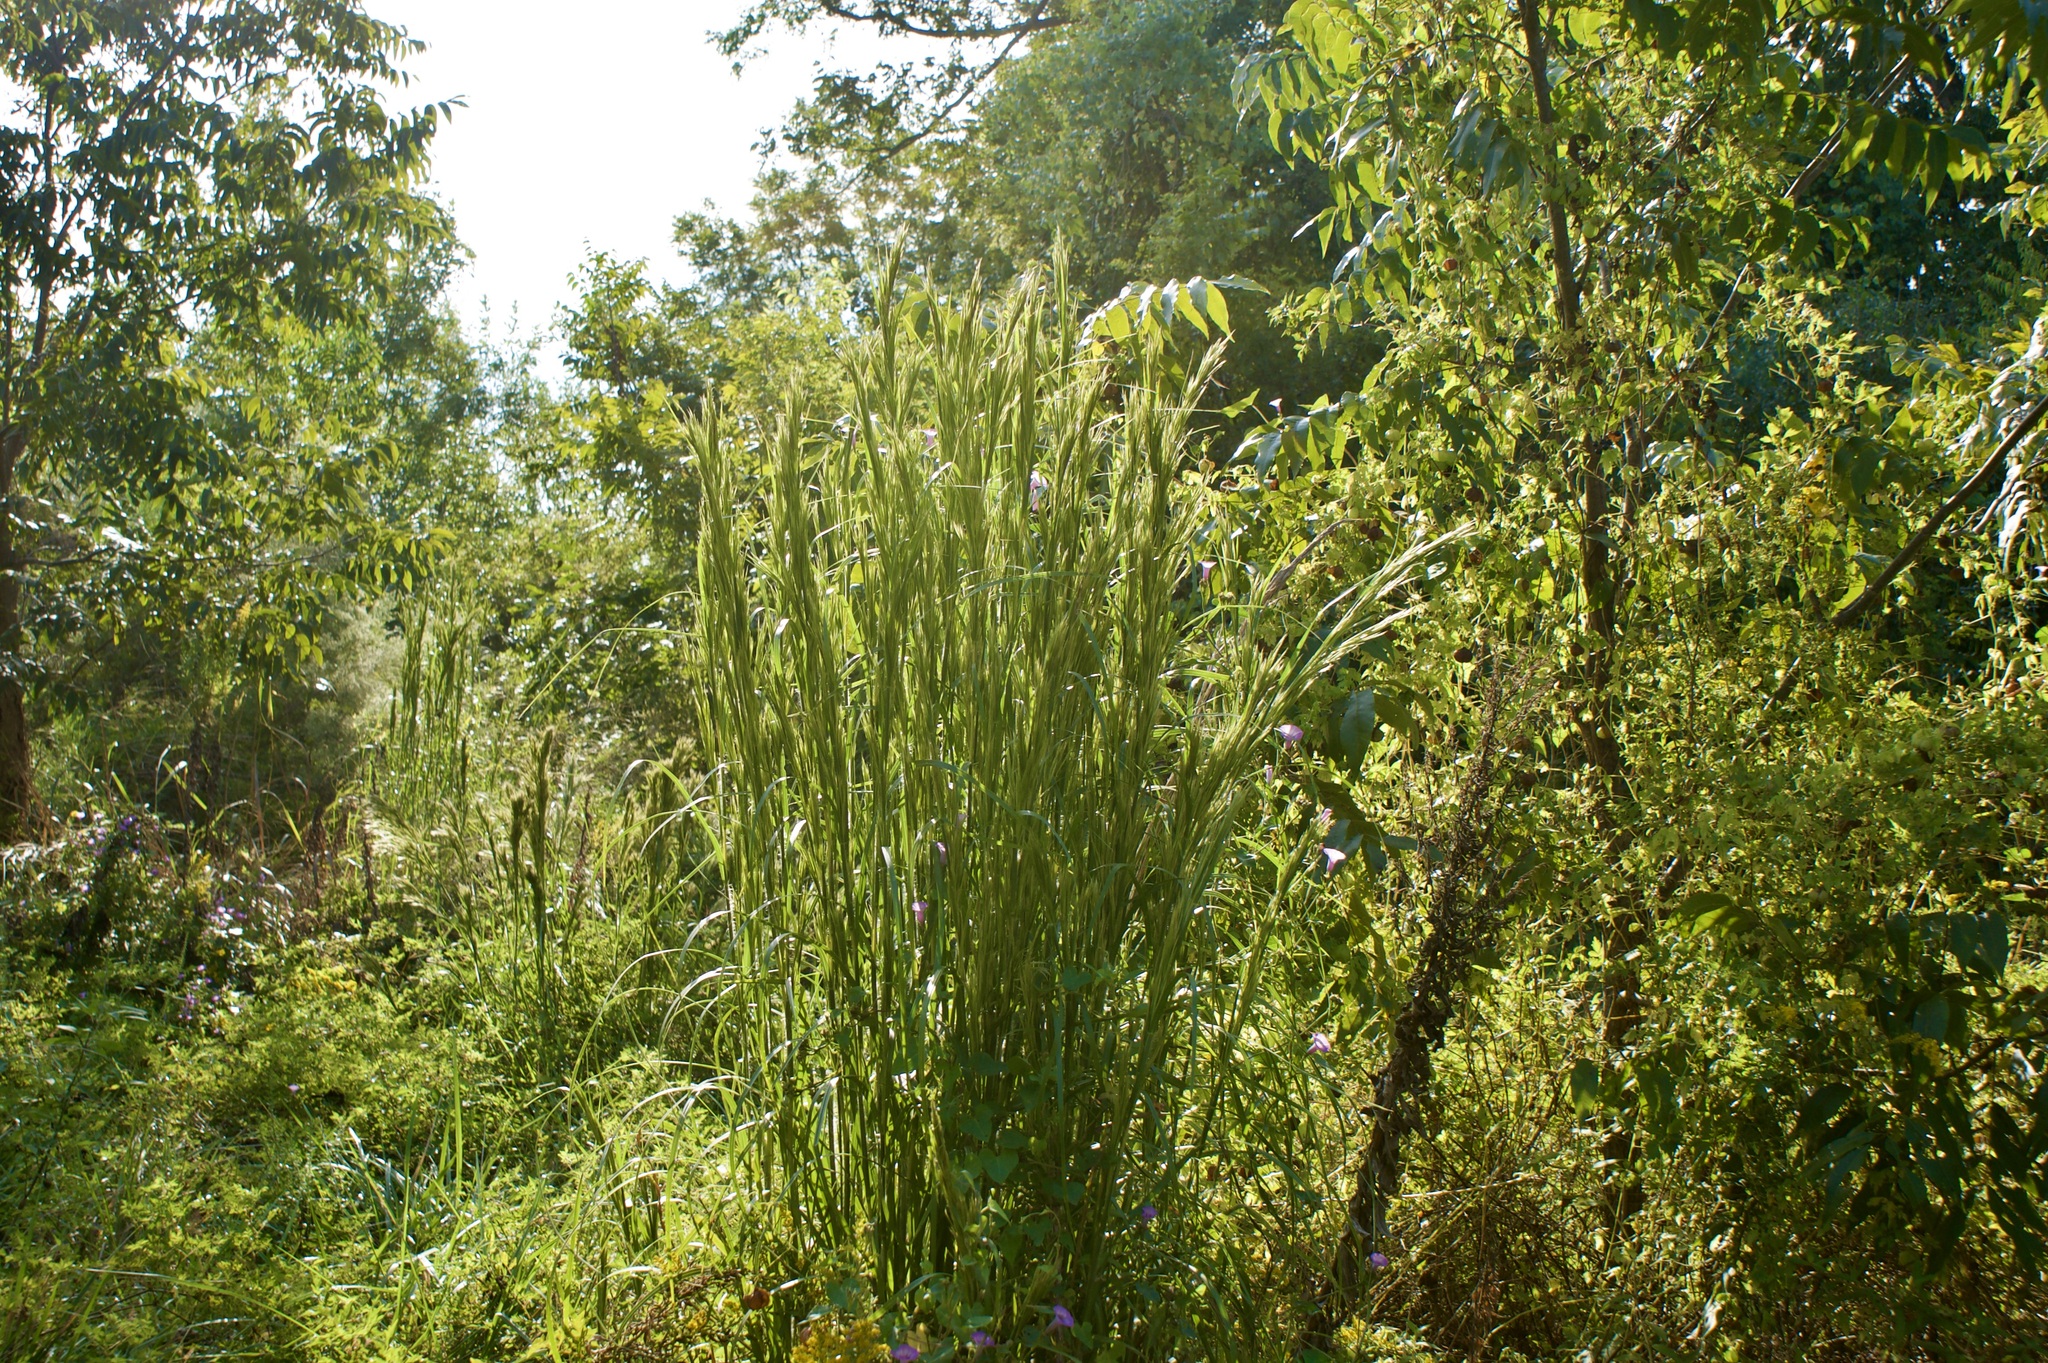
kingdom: Plantae
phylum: Tracheophyta
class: Liliopsida
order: Poales
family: Poaceae
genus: Andropogon
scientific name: Andropogon tenuispatheus
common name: Bushy bluestem
